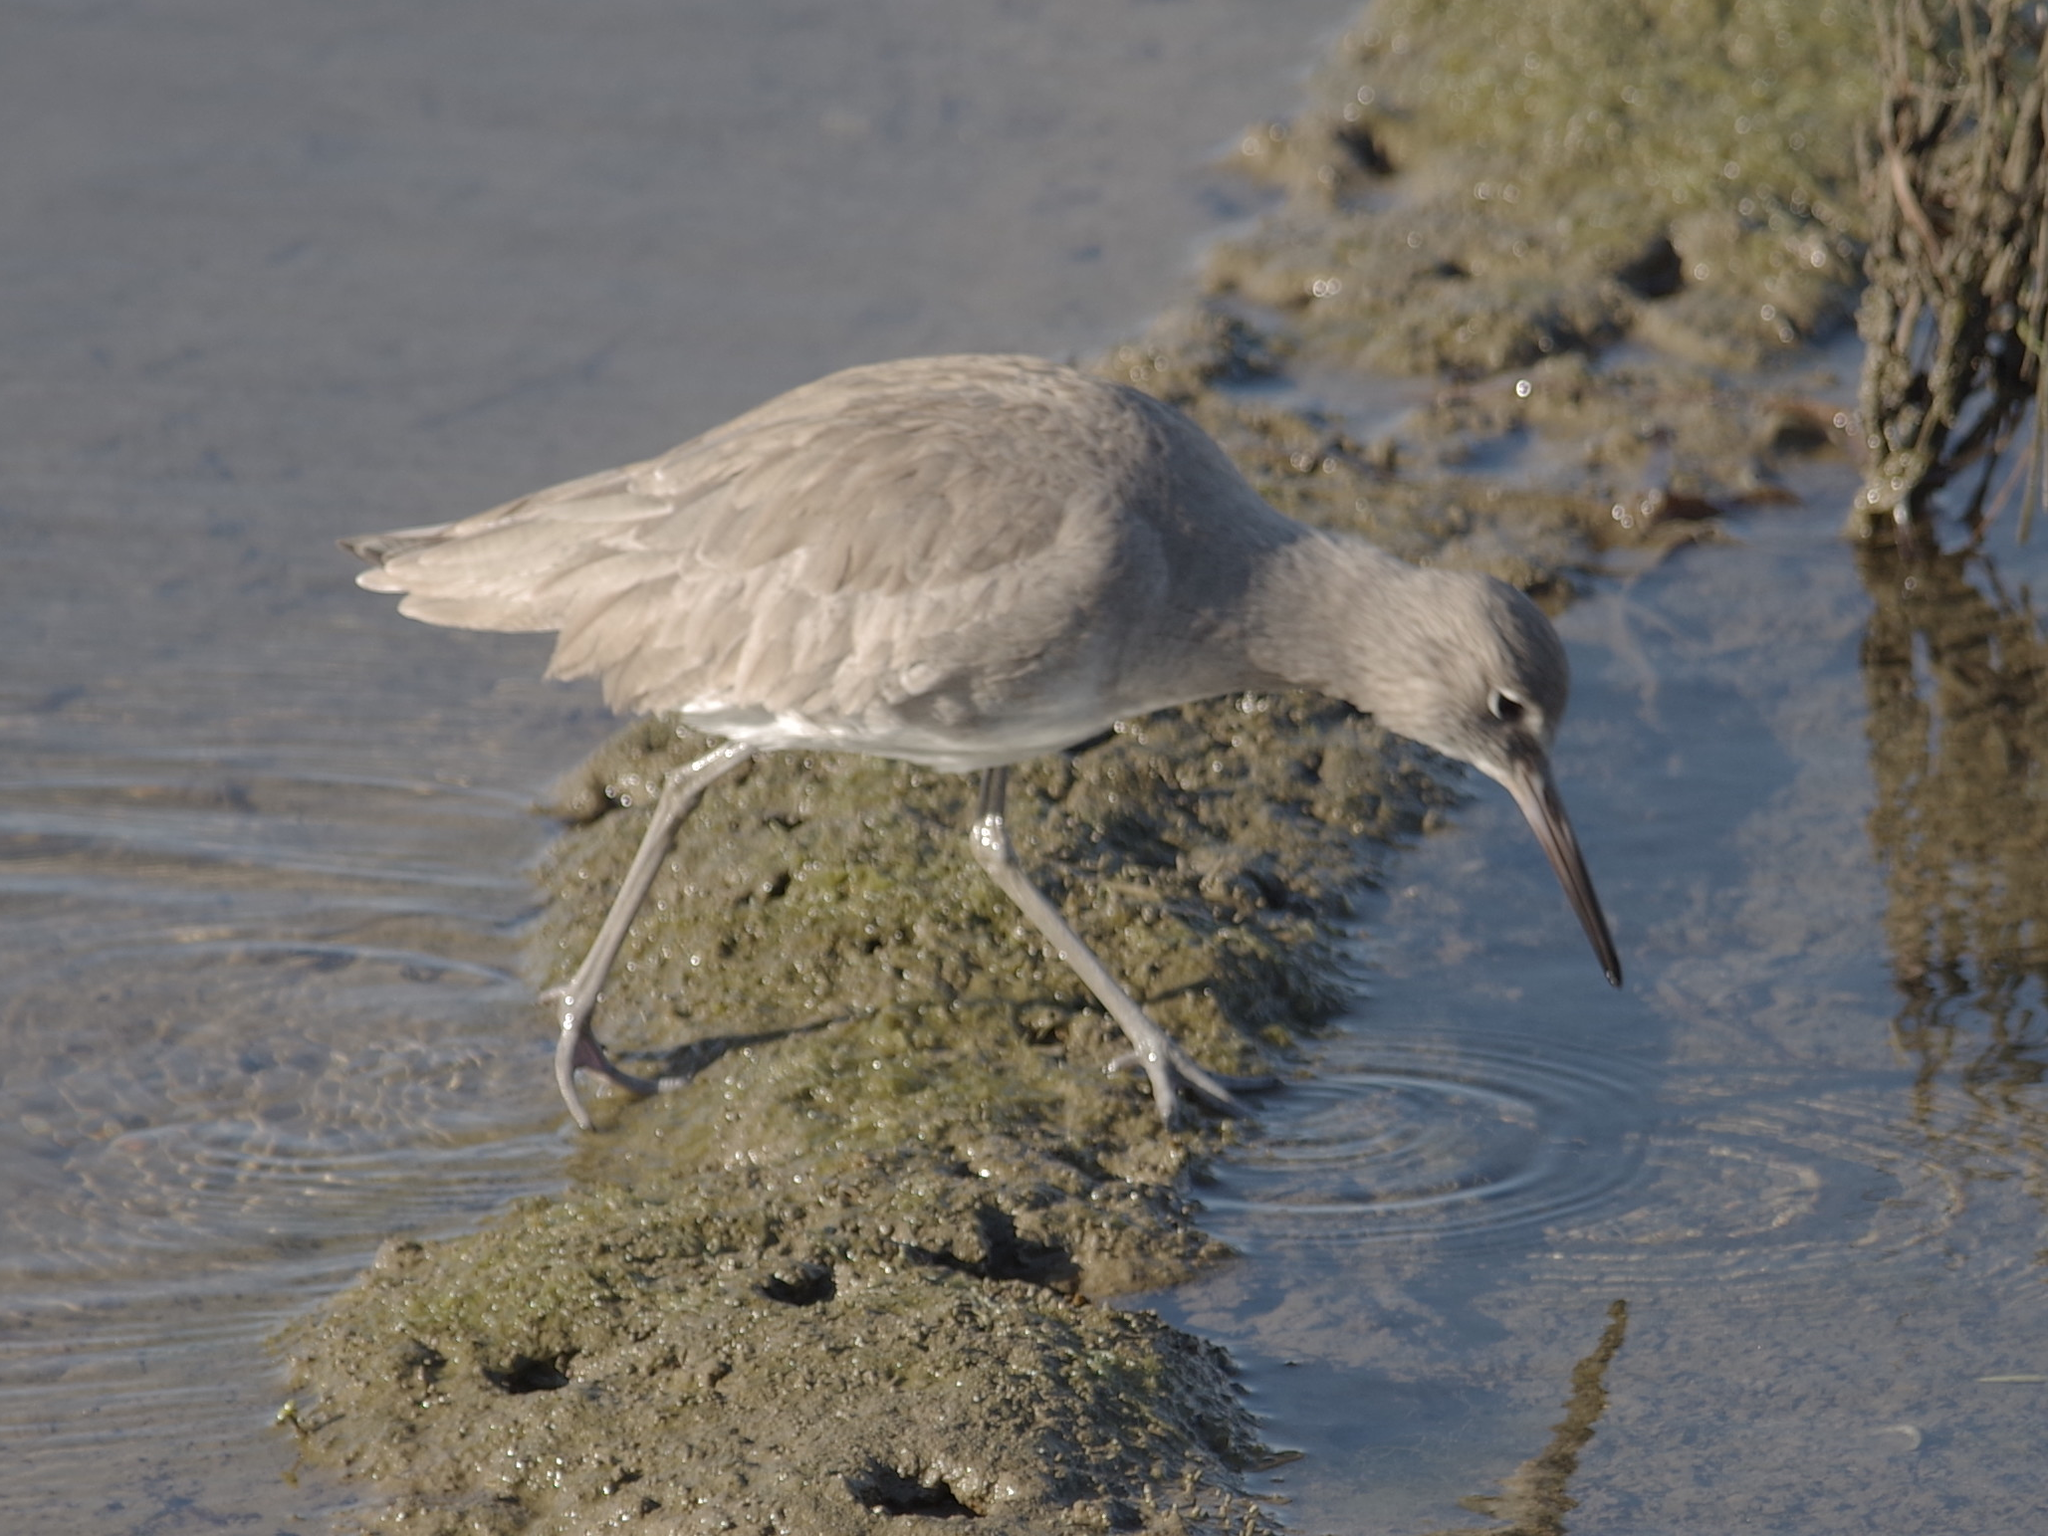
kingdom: Animalia
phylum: Chordata
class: Aves
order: Charadriiformes
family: Scolopacidae
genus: Tringa
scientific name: Tringa semipalmata
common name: Willet
